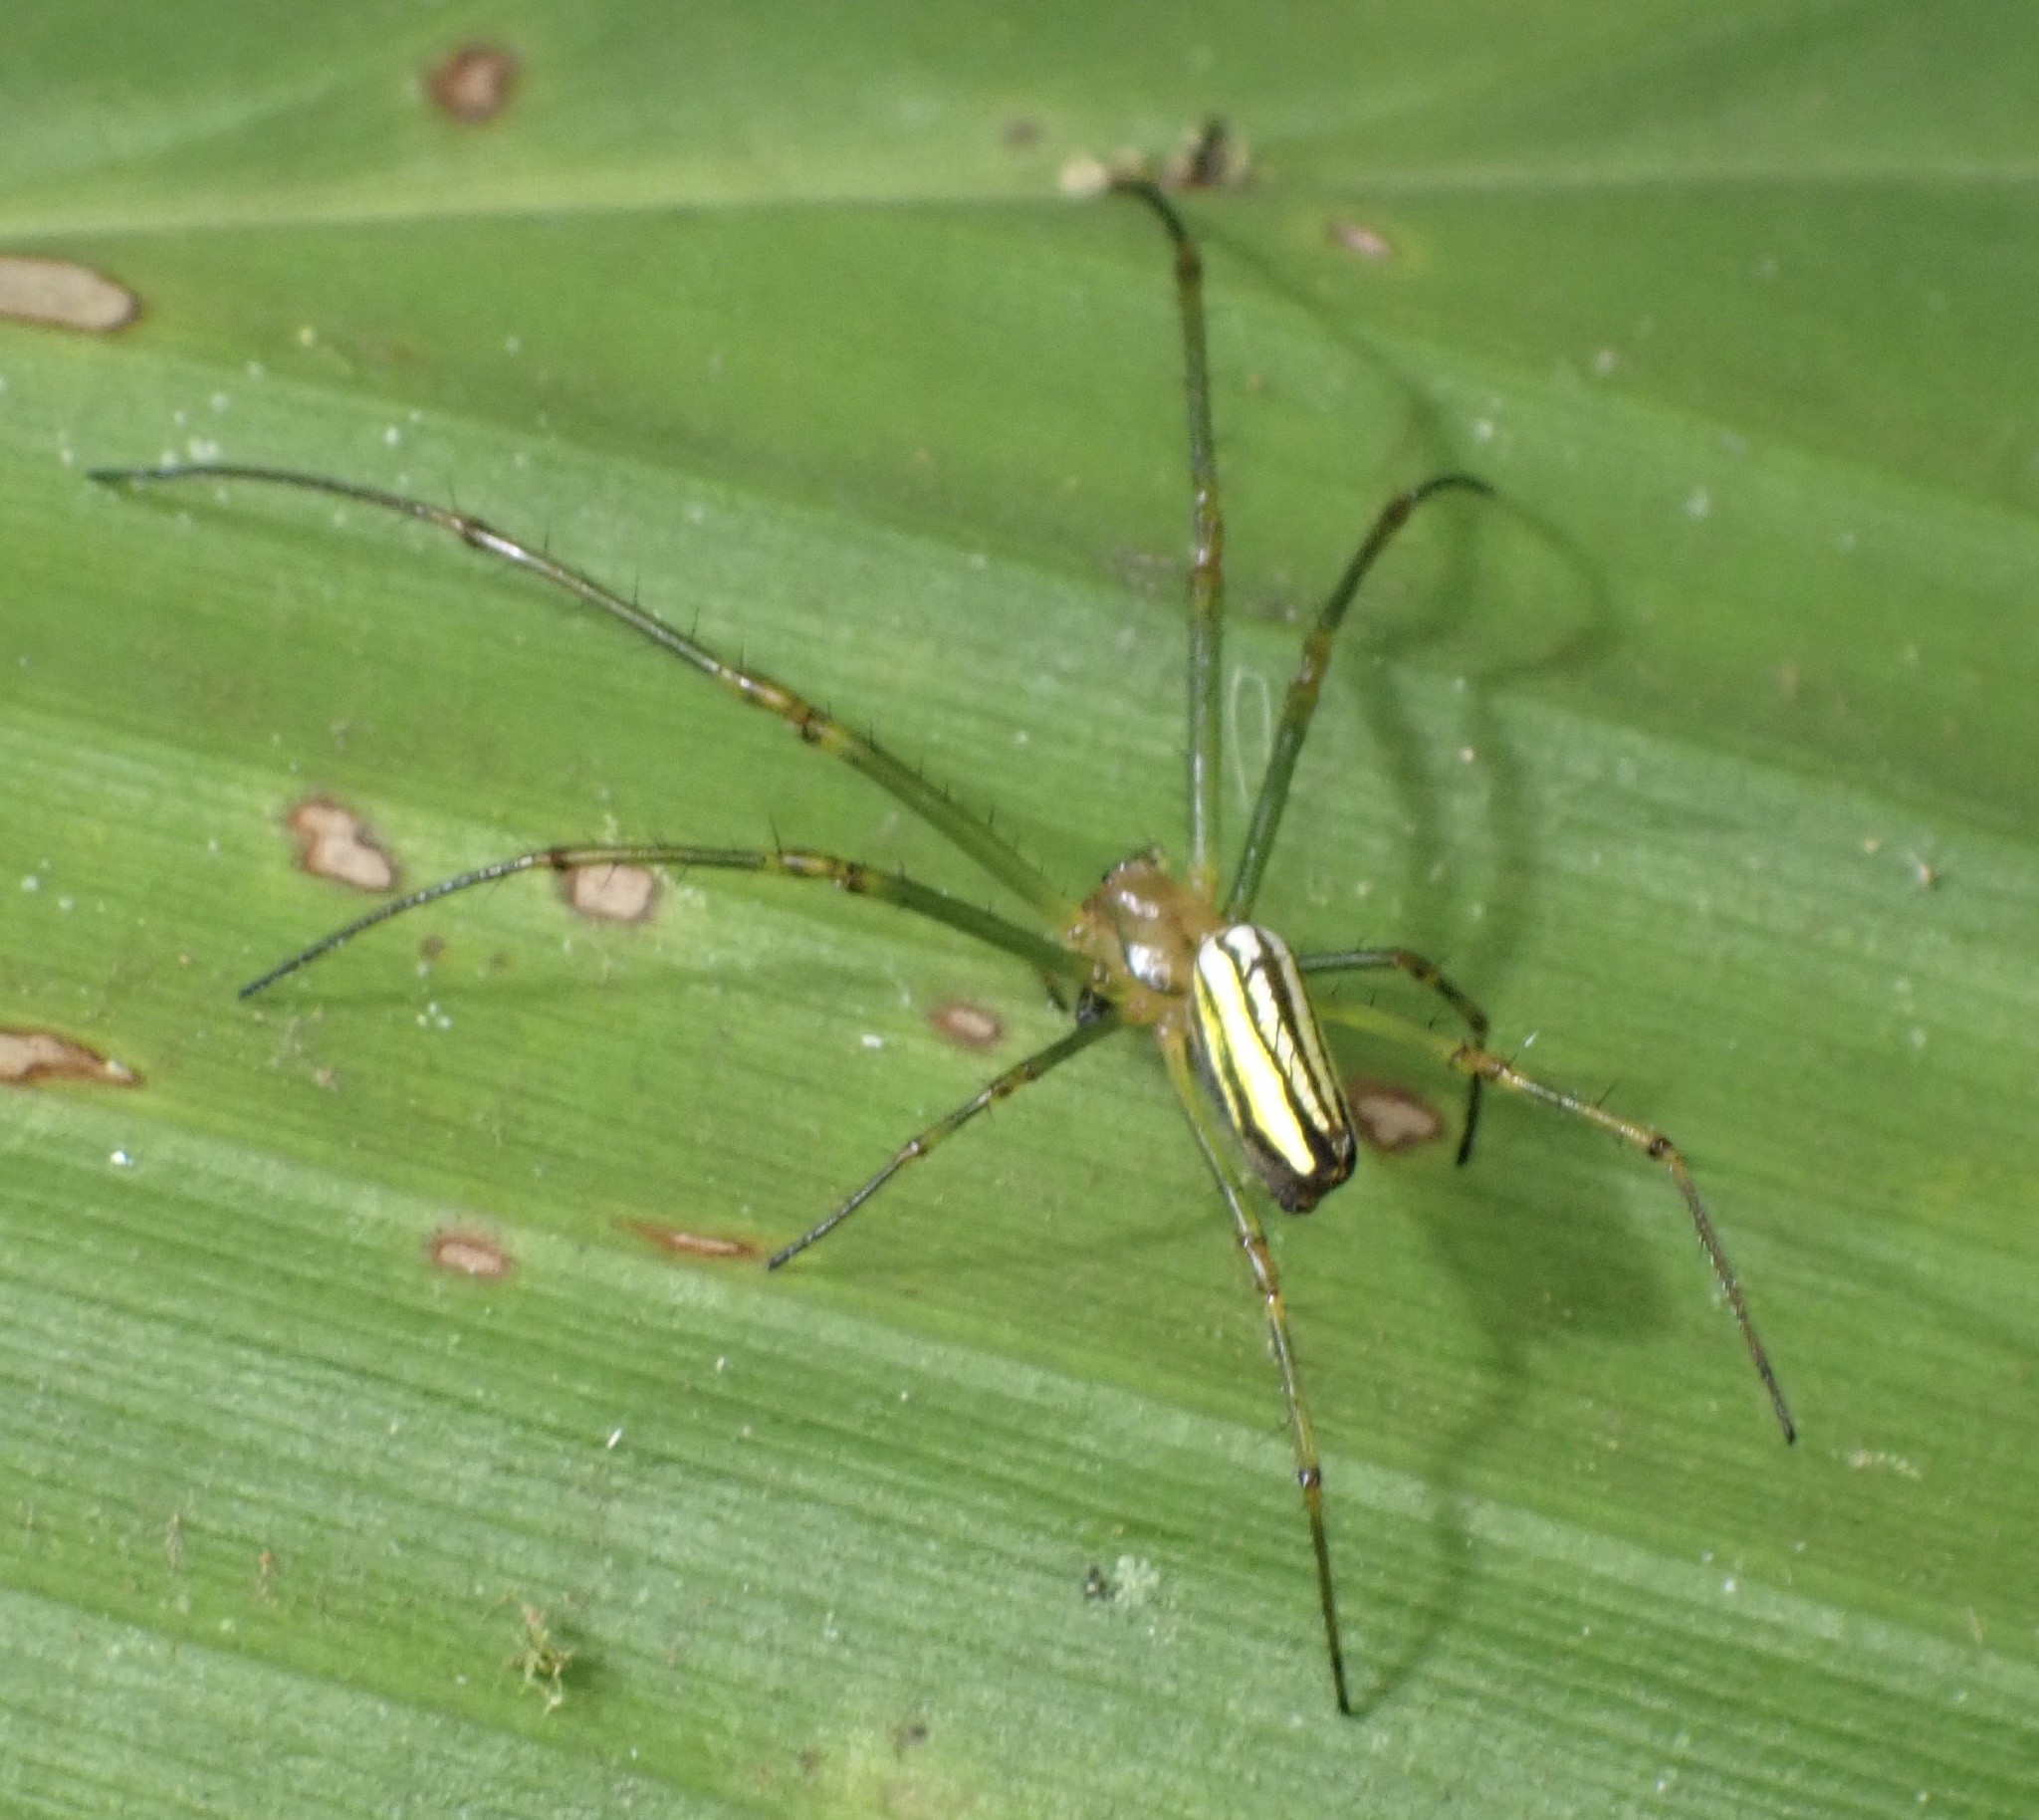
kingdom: Animalia
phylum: Arthropoda
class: Arachnida
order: Araneae
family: Tetragnathidae
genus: Leucauge
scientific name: Leucauge celebesiana
